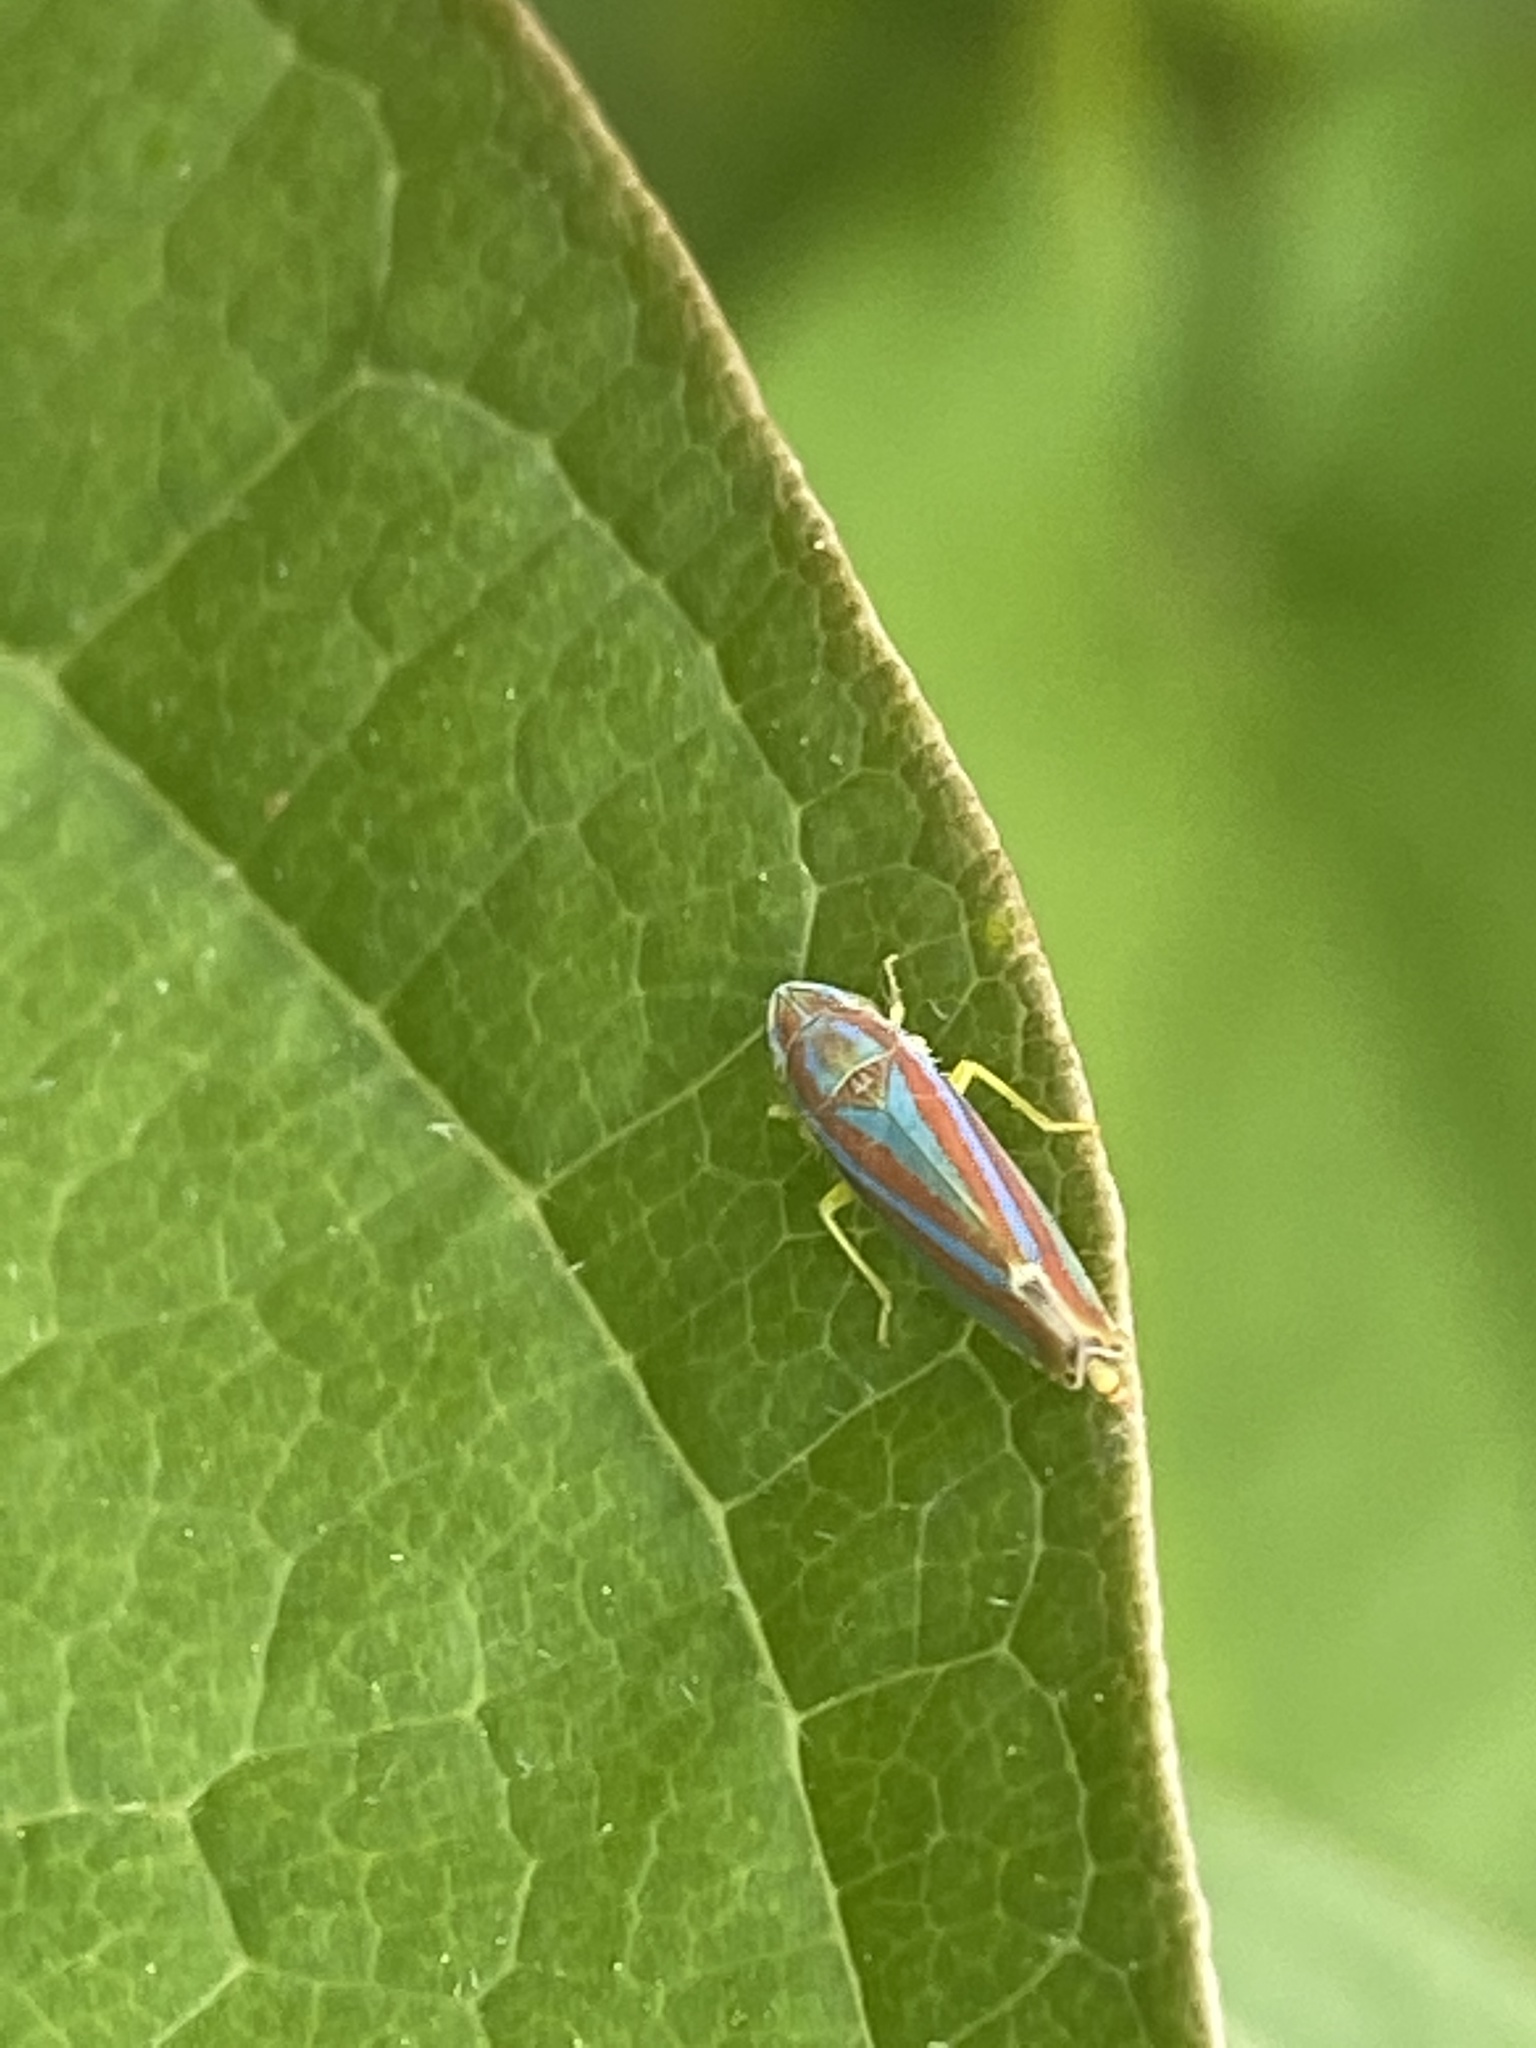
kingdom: Animalia
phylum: Arthropoda
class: Insecta
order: Hemiptera
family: Cicadellidae
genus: Graphocephala
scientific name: Graphocephala versuta
